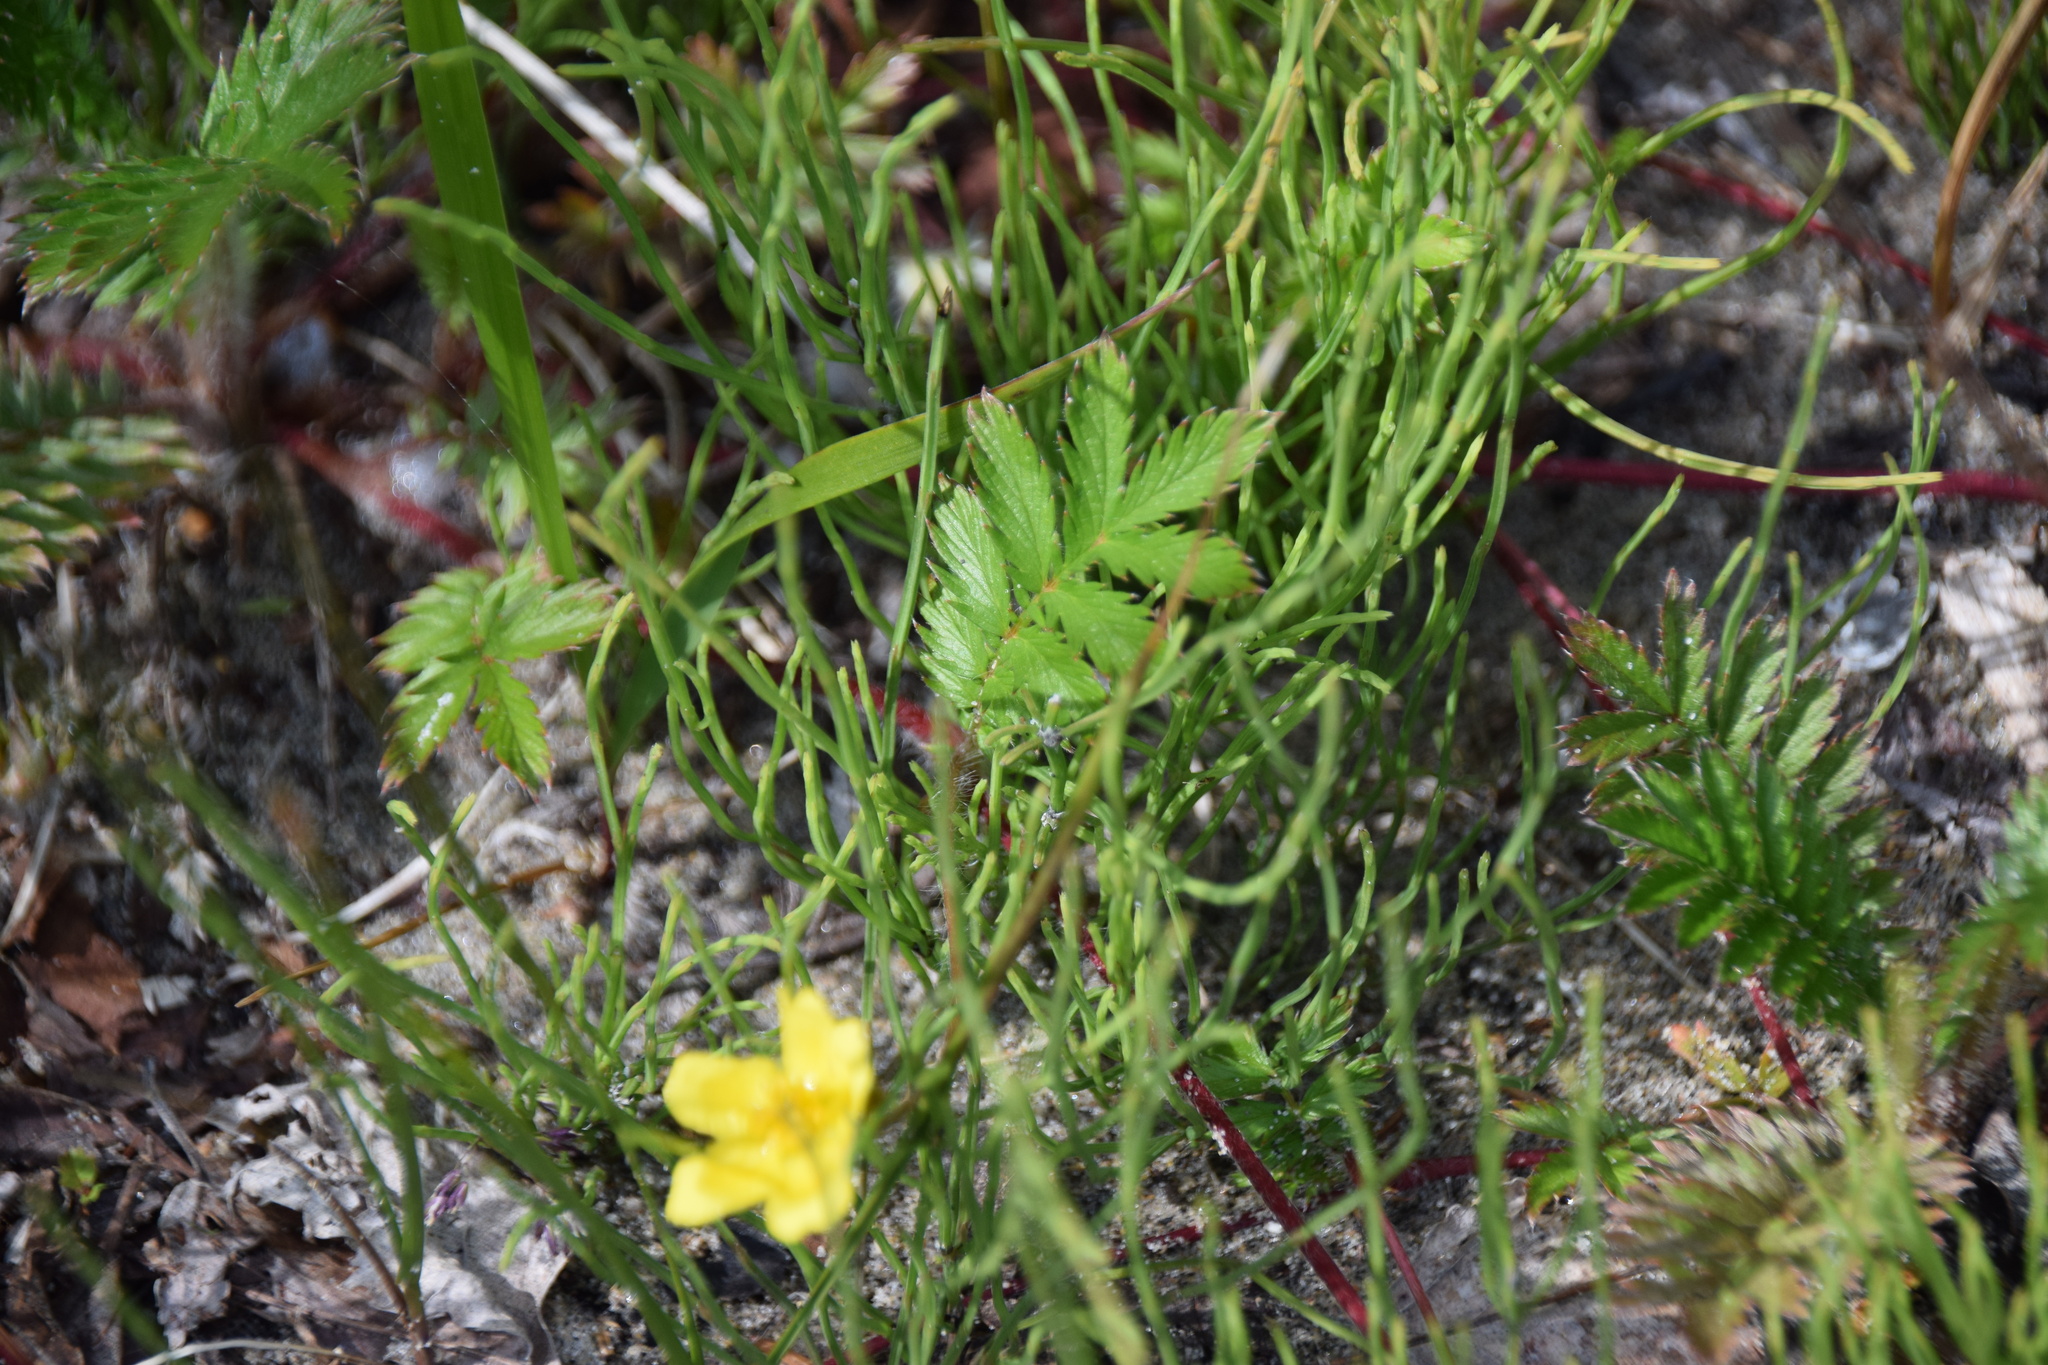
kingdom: Plantae
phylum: Tracheophyta
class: Magnoliopsida
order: Rosales
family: Rosaceae
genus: Argentina
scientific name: Argentina anserina
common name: Common silverweed
